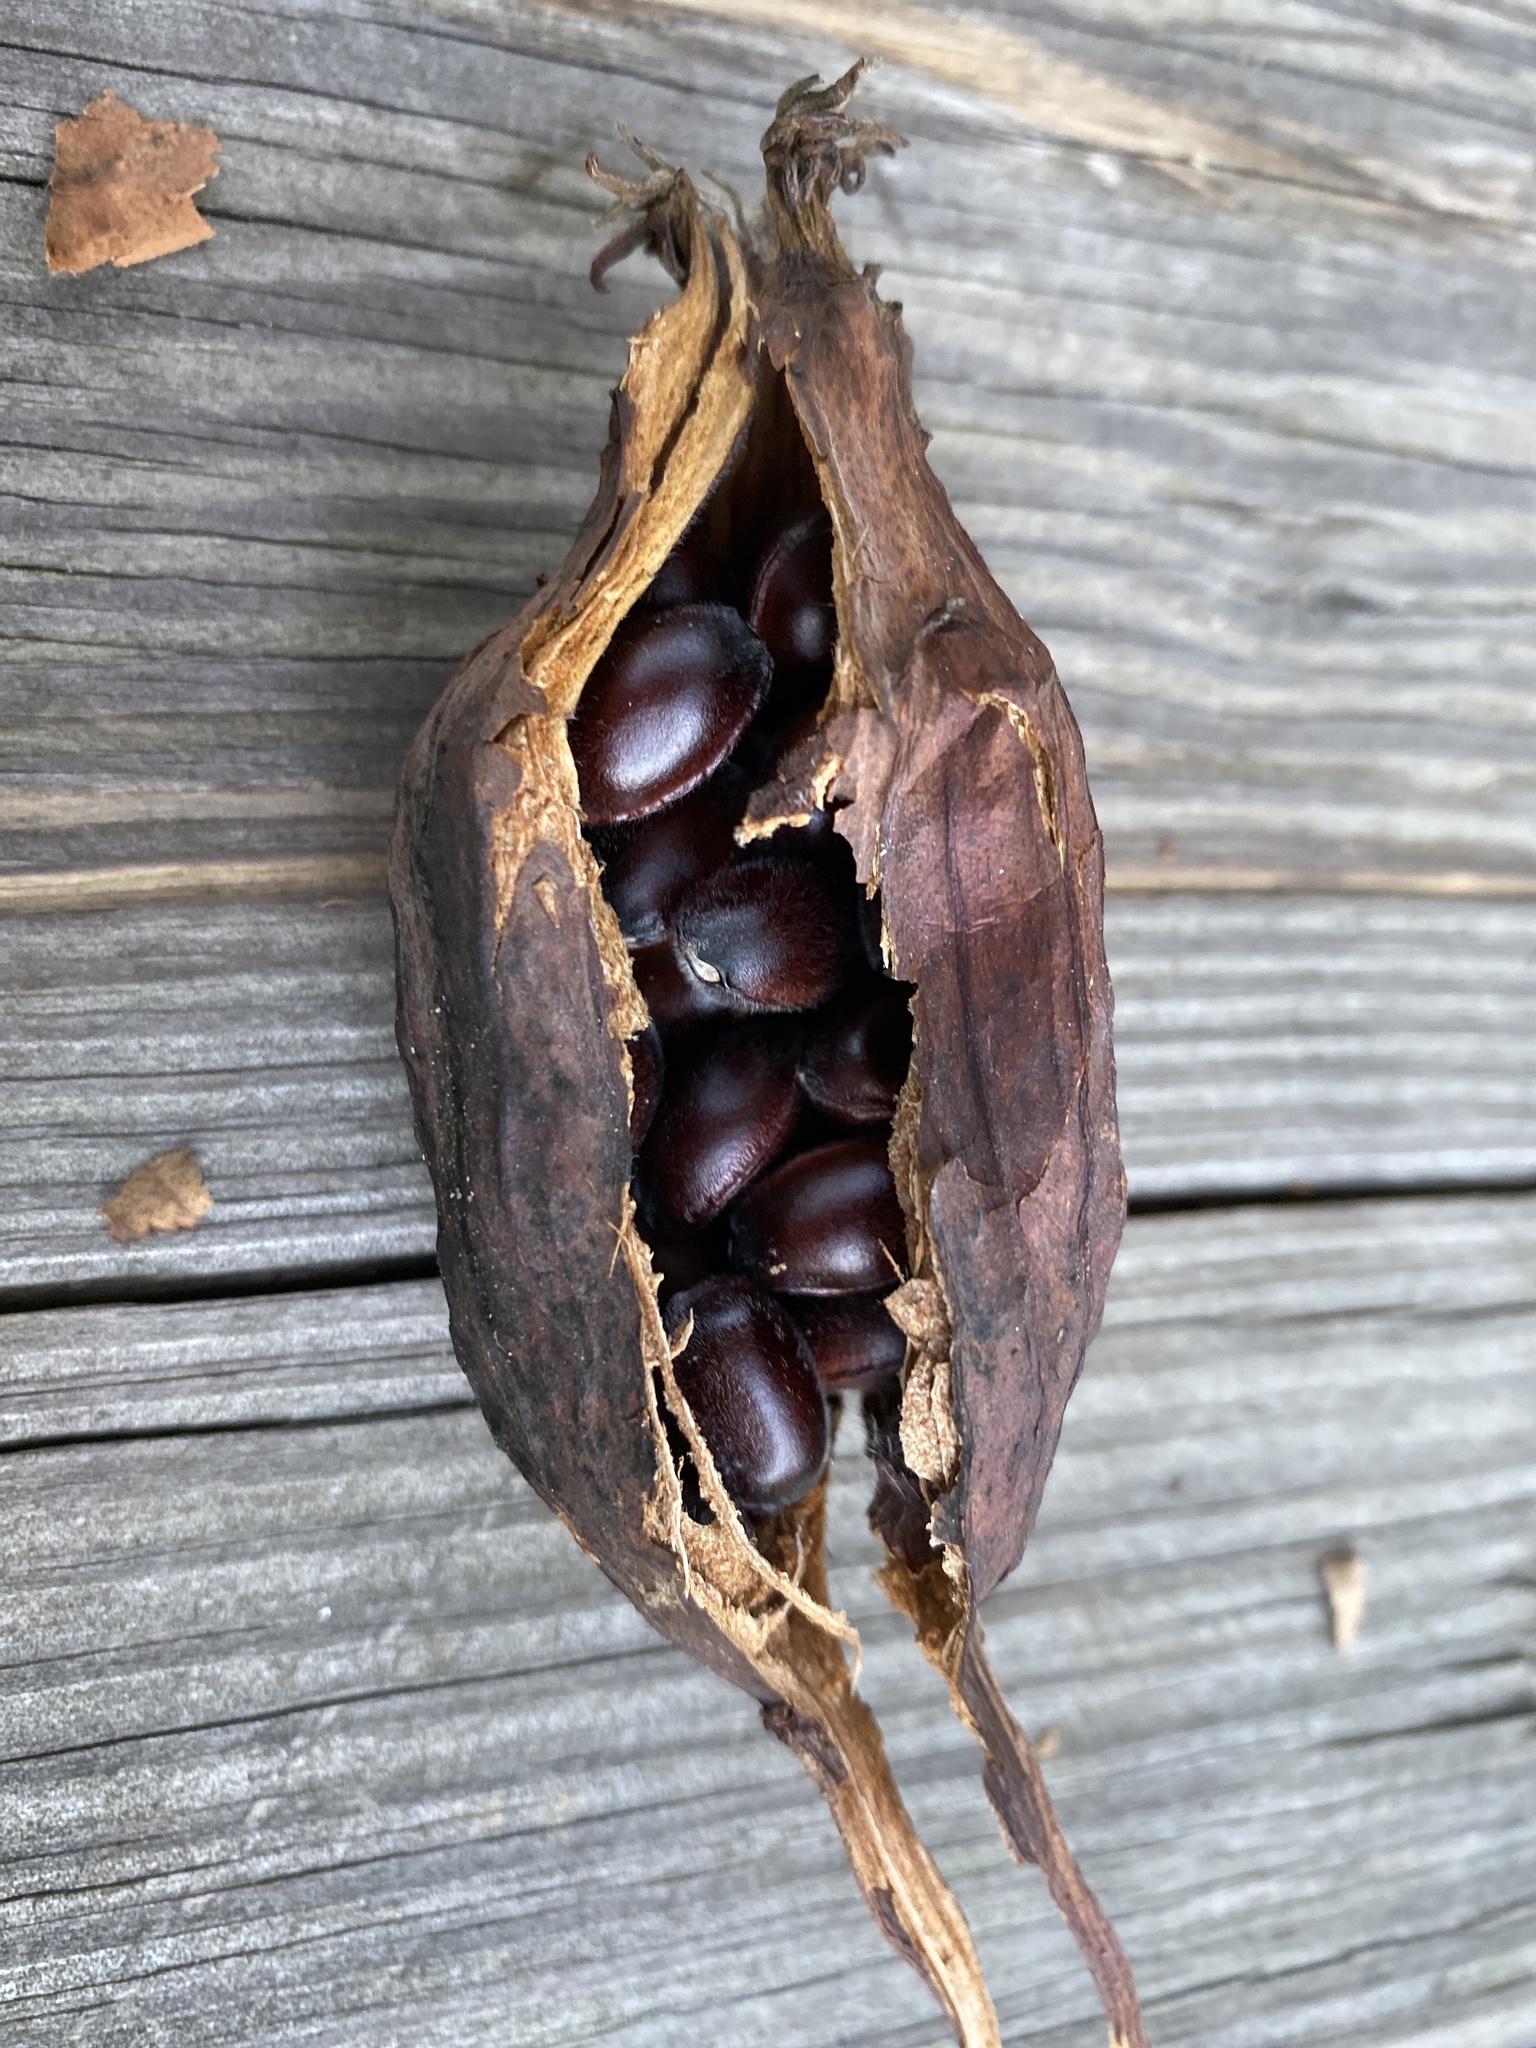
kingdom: Plantae
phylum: Tracheophyta
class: Magnoliopsida
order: Laurales
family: Calycanthaceae
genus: Calycanthus
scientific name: Calycanthus floridus
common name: Carolina-allspice
